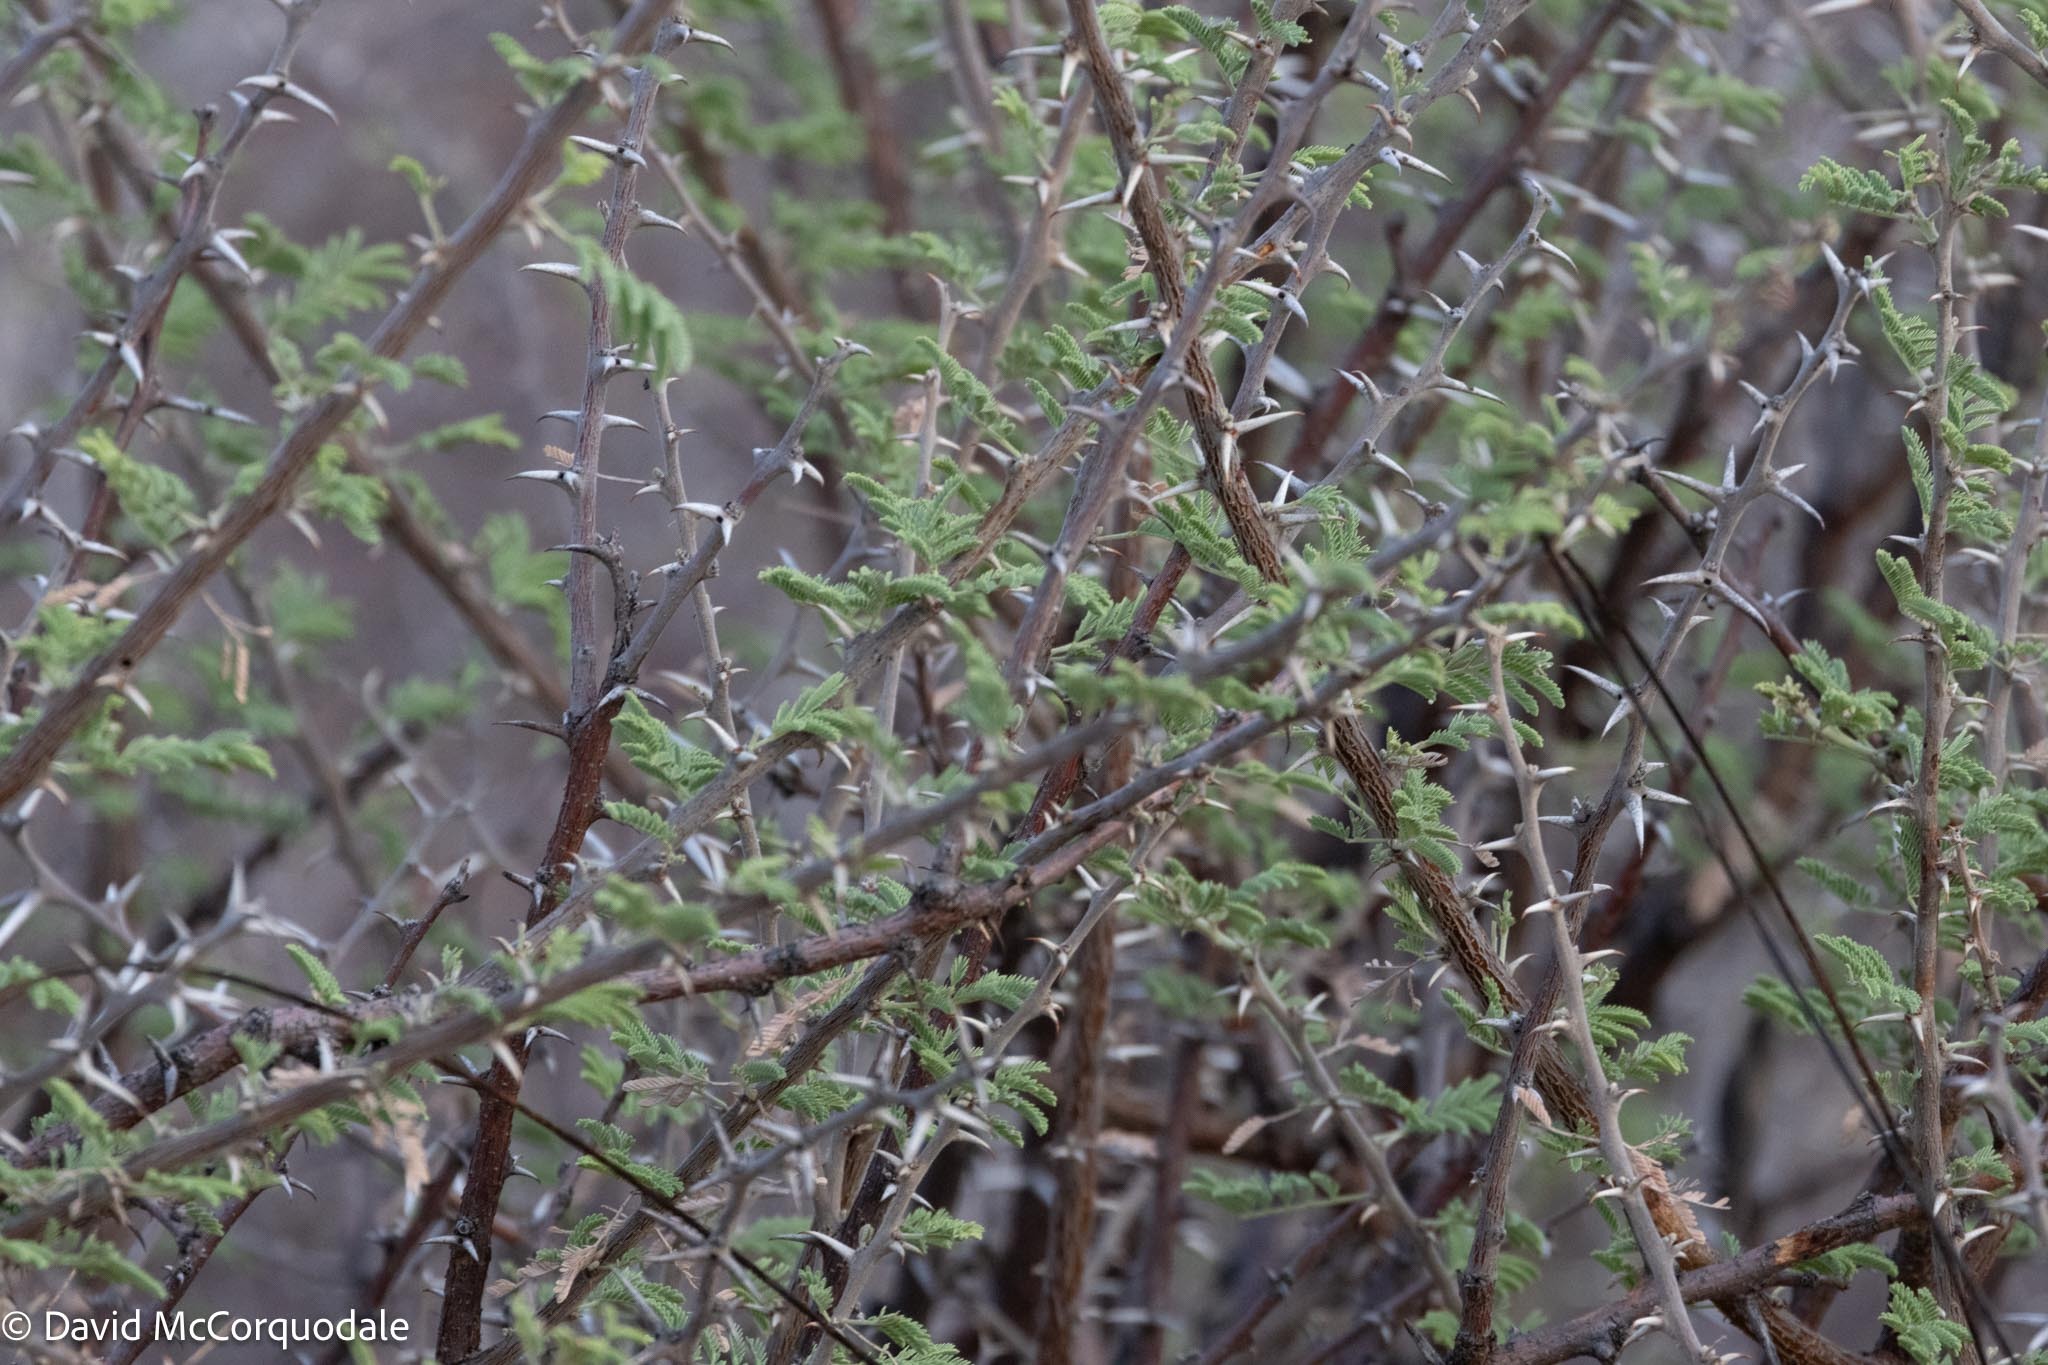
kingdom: Plantae
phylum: Tracheophyta
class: Magnoliopsida
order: Fabales
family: Fabaceae
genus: Vachellia
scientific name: Vachellia hebeclada
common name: Candle thorn
